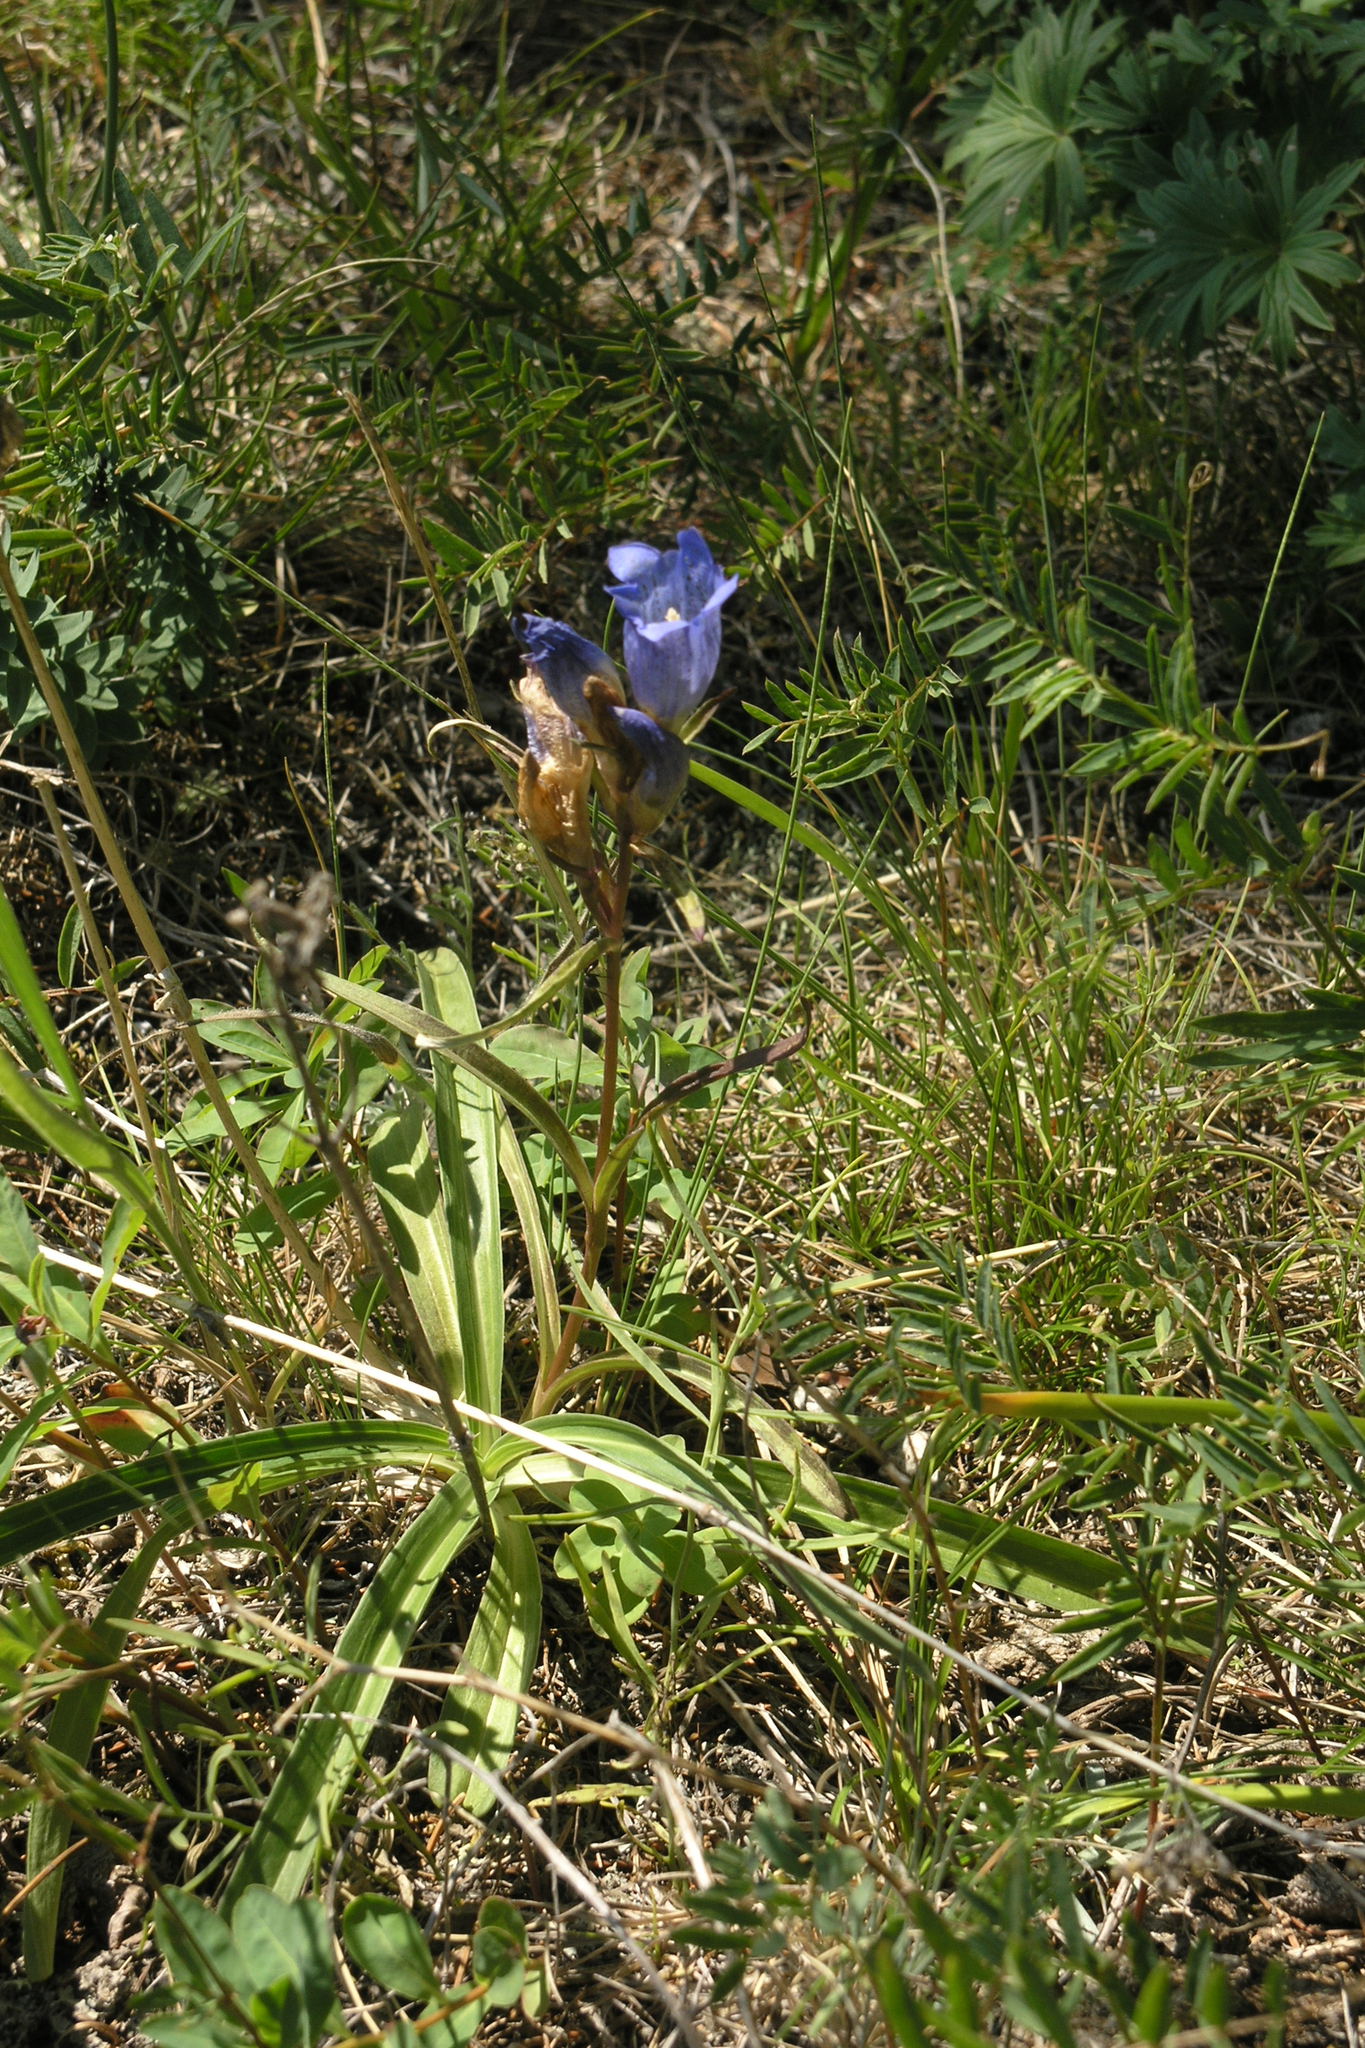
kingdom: Plantae
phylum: Tracheophyta
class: Magnoliopsida
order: Gentianales
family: Gentianaceae
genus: Gentiana
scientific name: Gentiana decumbens
